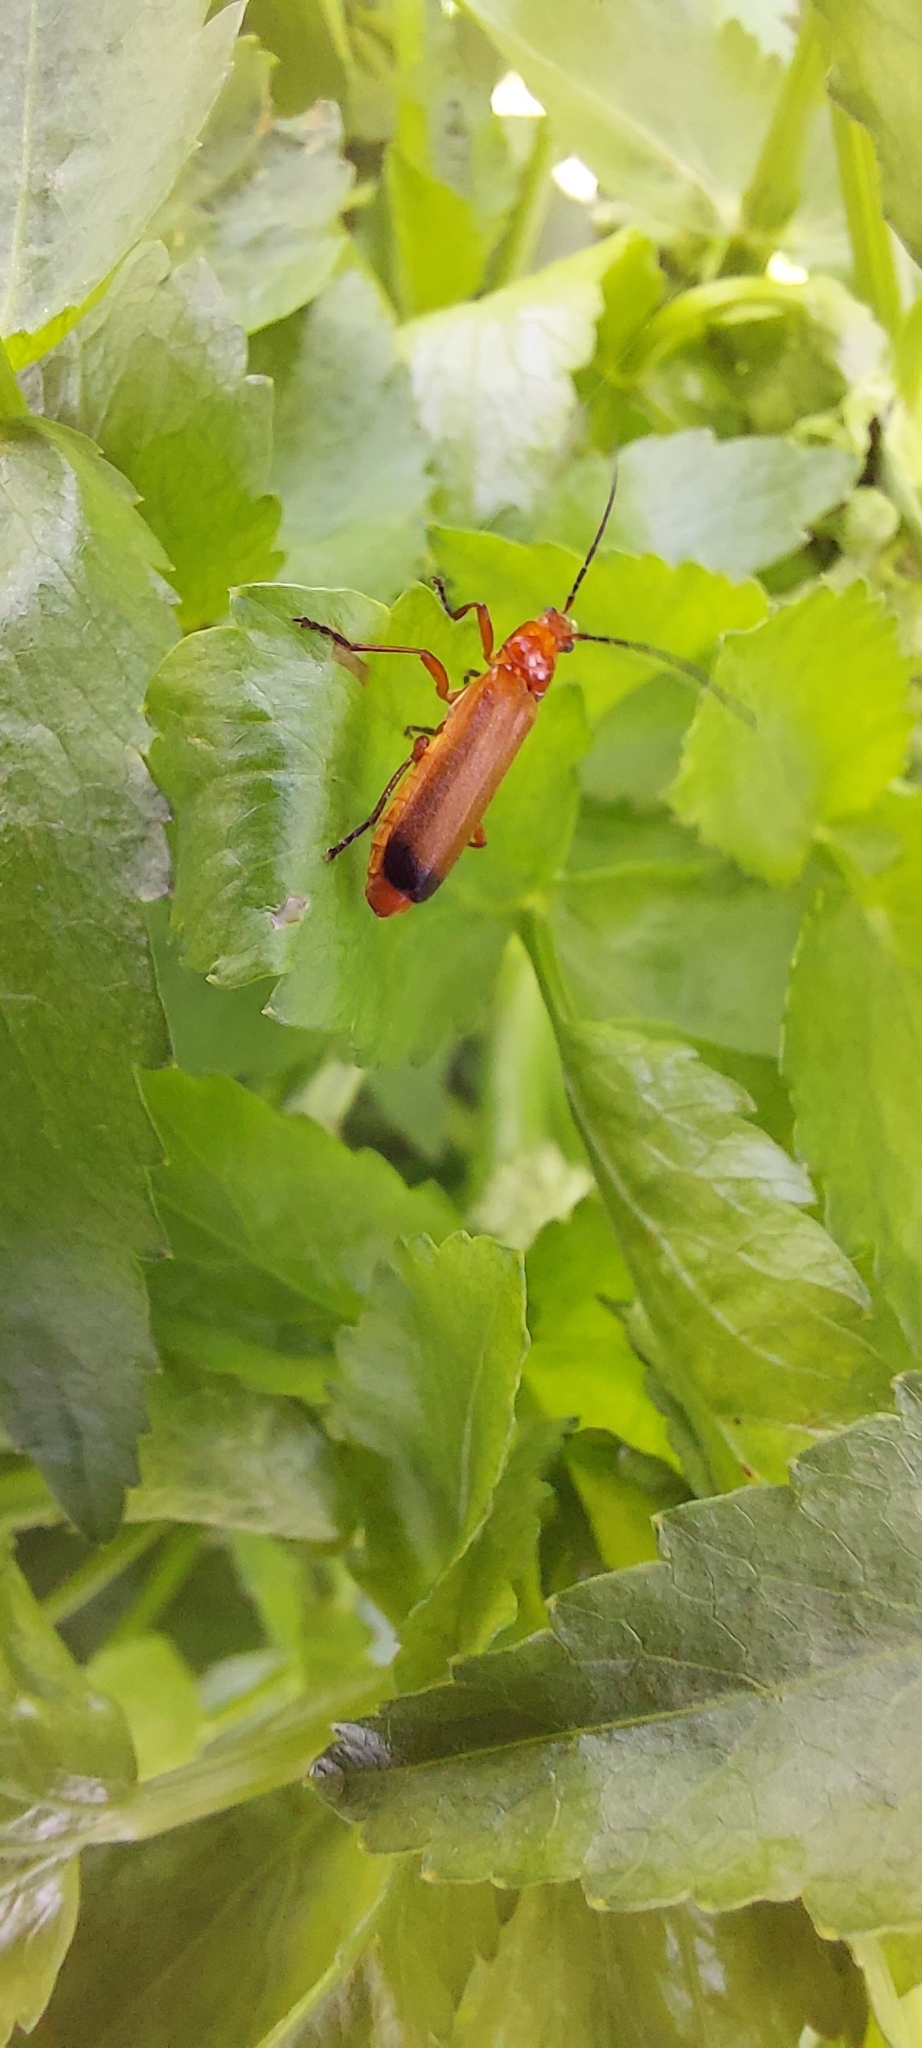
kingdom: Animalia
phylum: Arthropoda
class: Insecta
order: Coleoptera
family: Cantharidae
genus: Rhagonycha
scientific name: Rhagonycha fulva
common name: Common red soldier beetle
